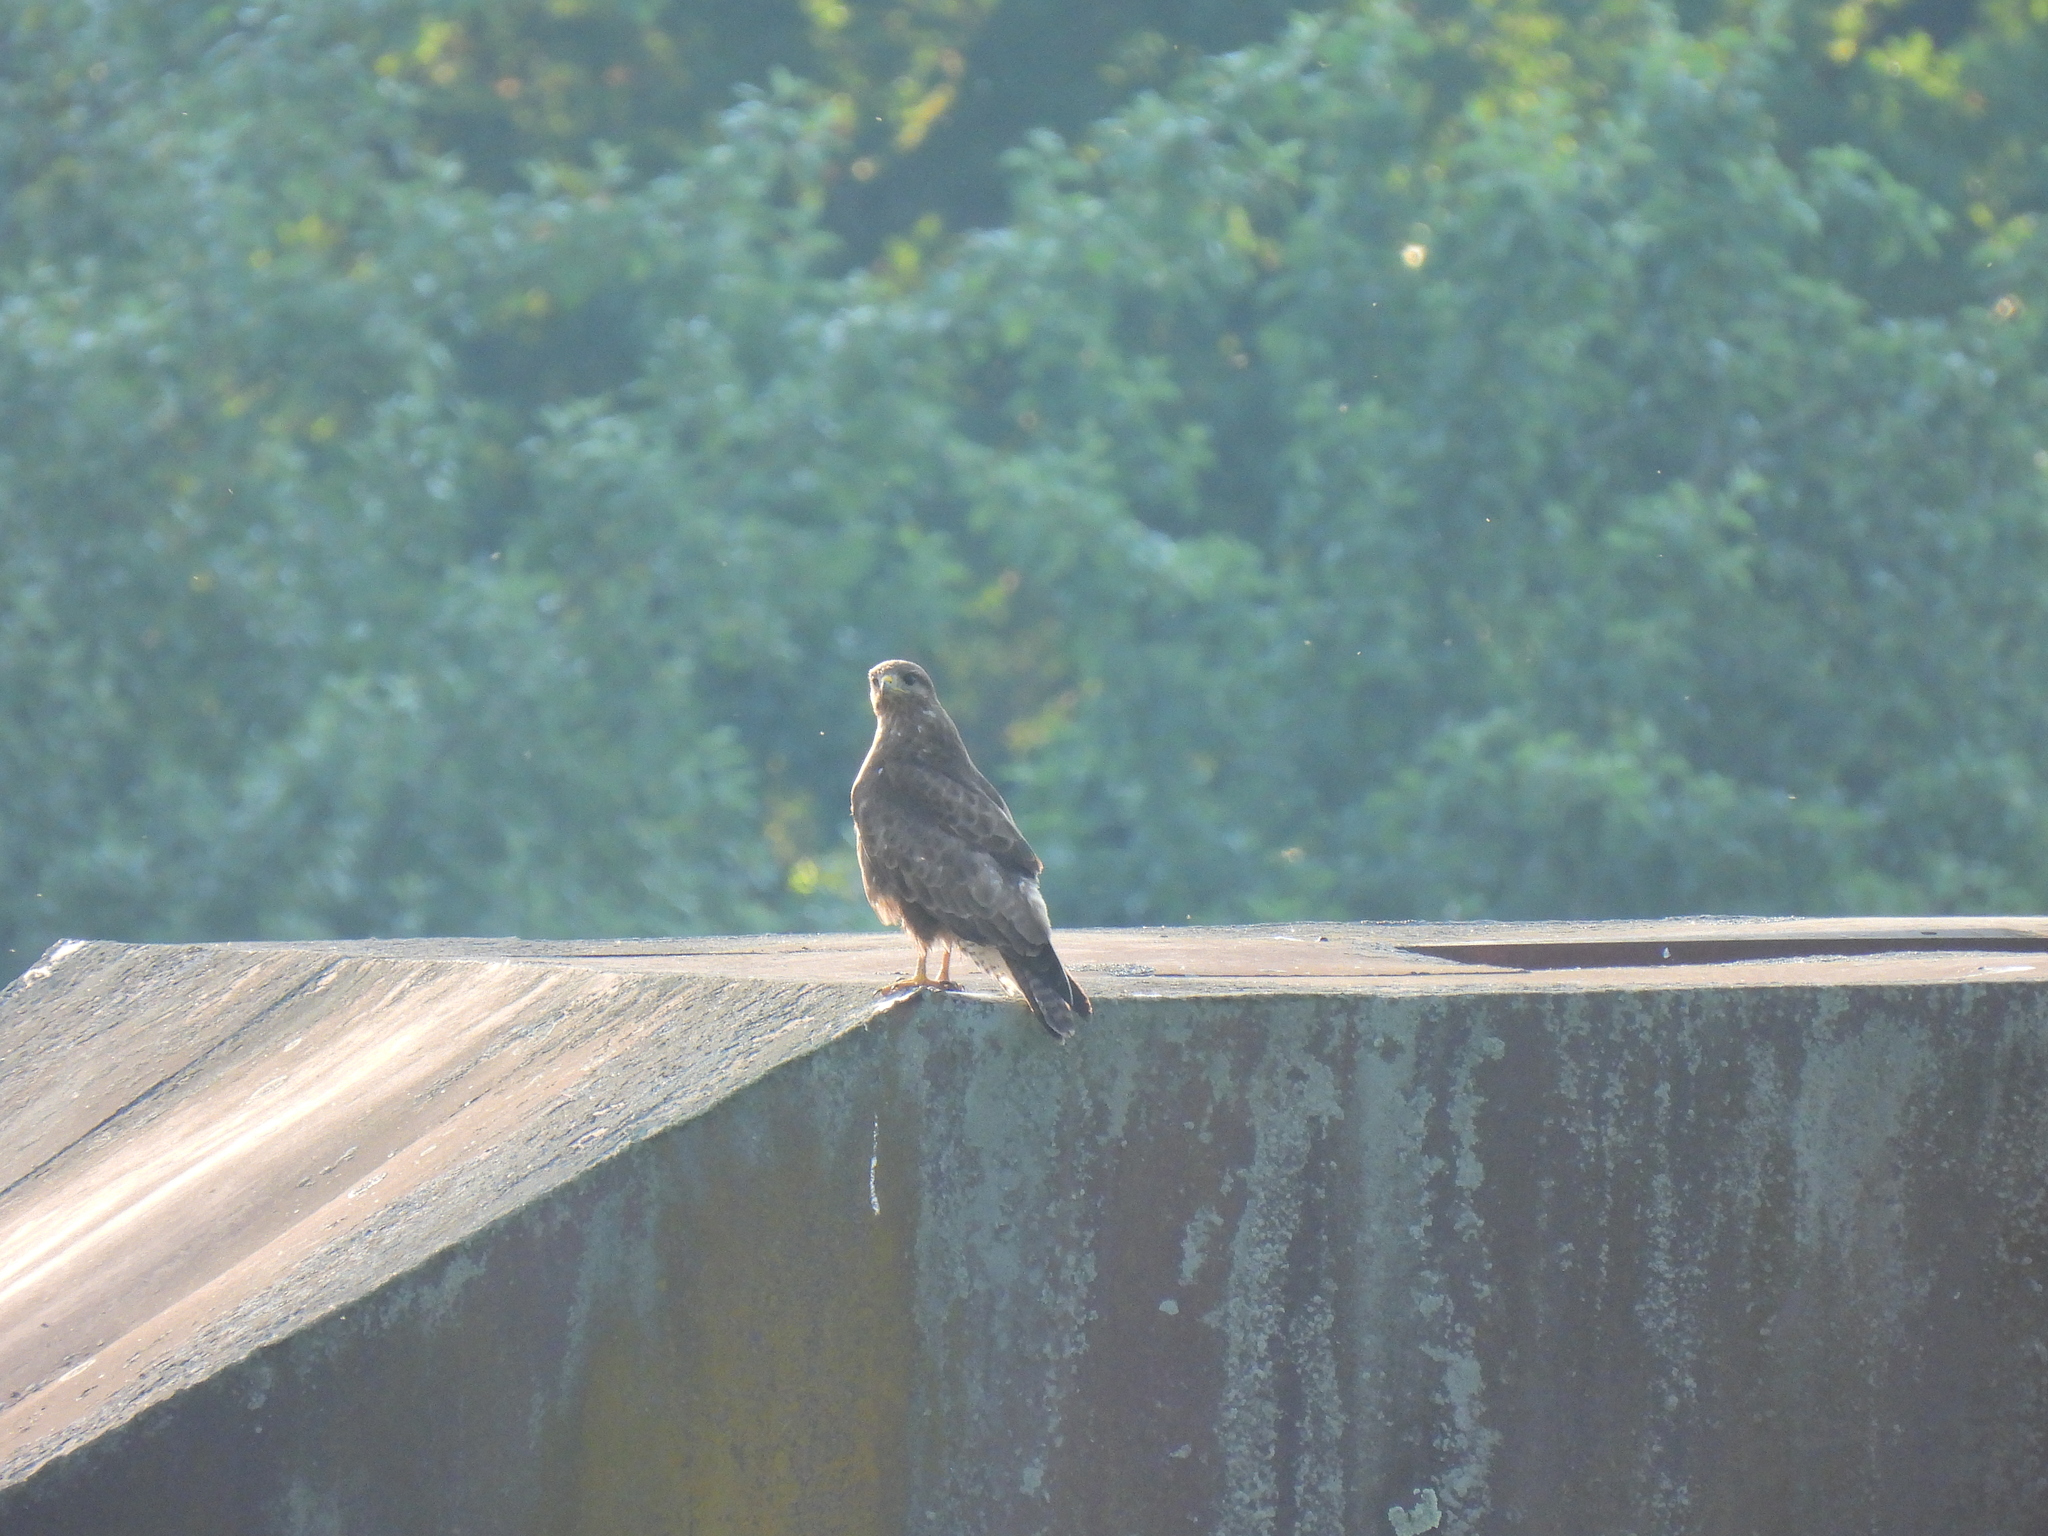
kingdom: Animalia
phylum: Chordata
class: Aves
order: Accipitriformes
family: Accipitridae
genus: Buteo
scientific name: Buteo buteo
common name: Common buzzard
